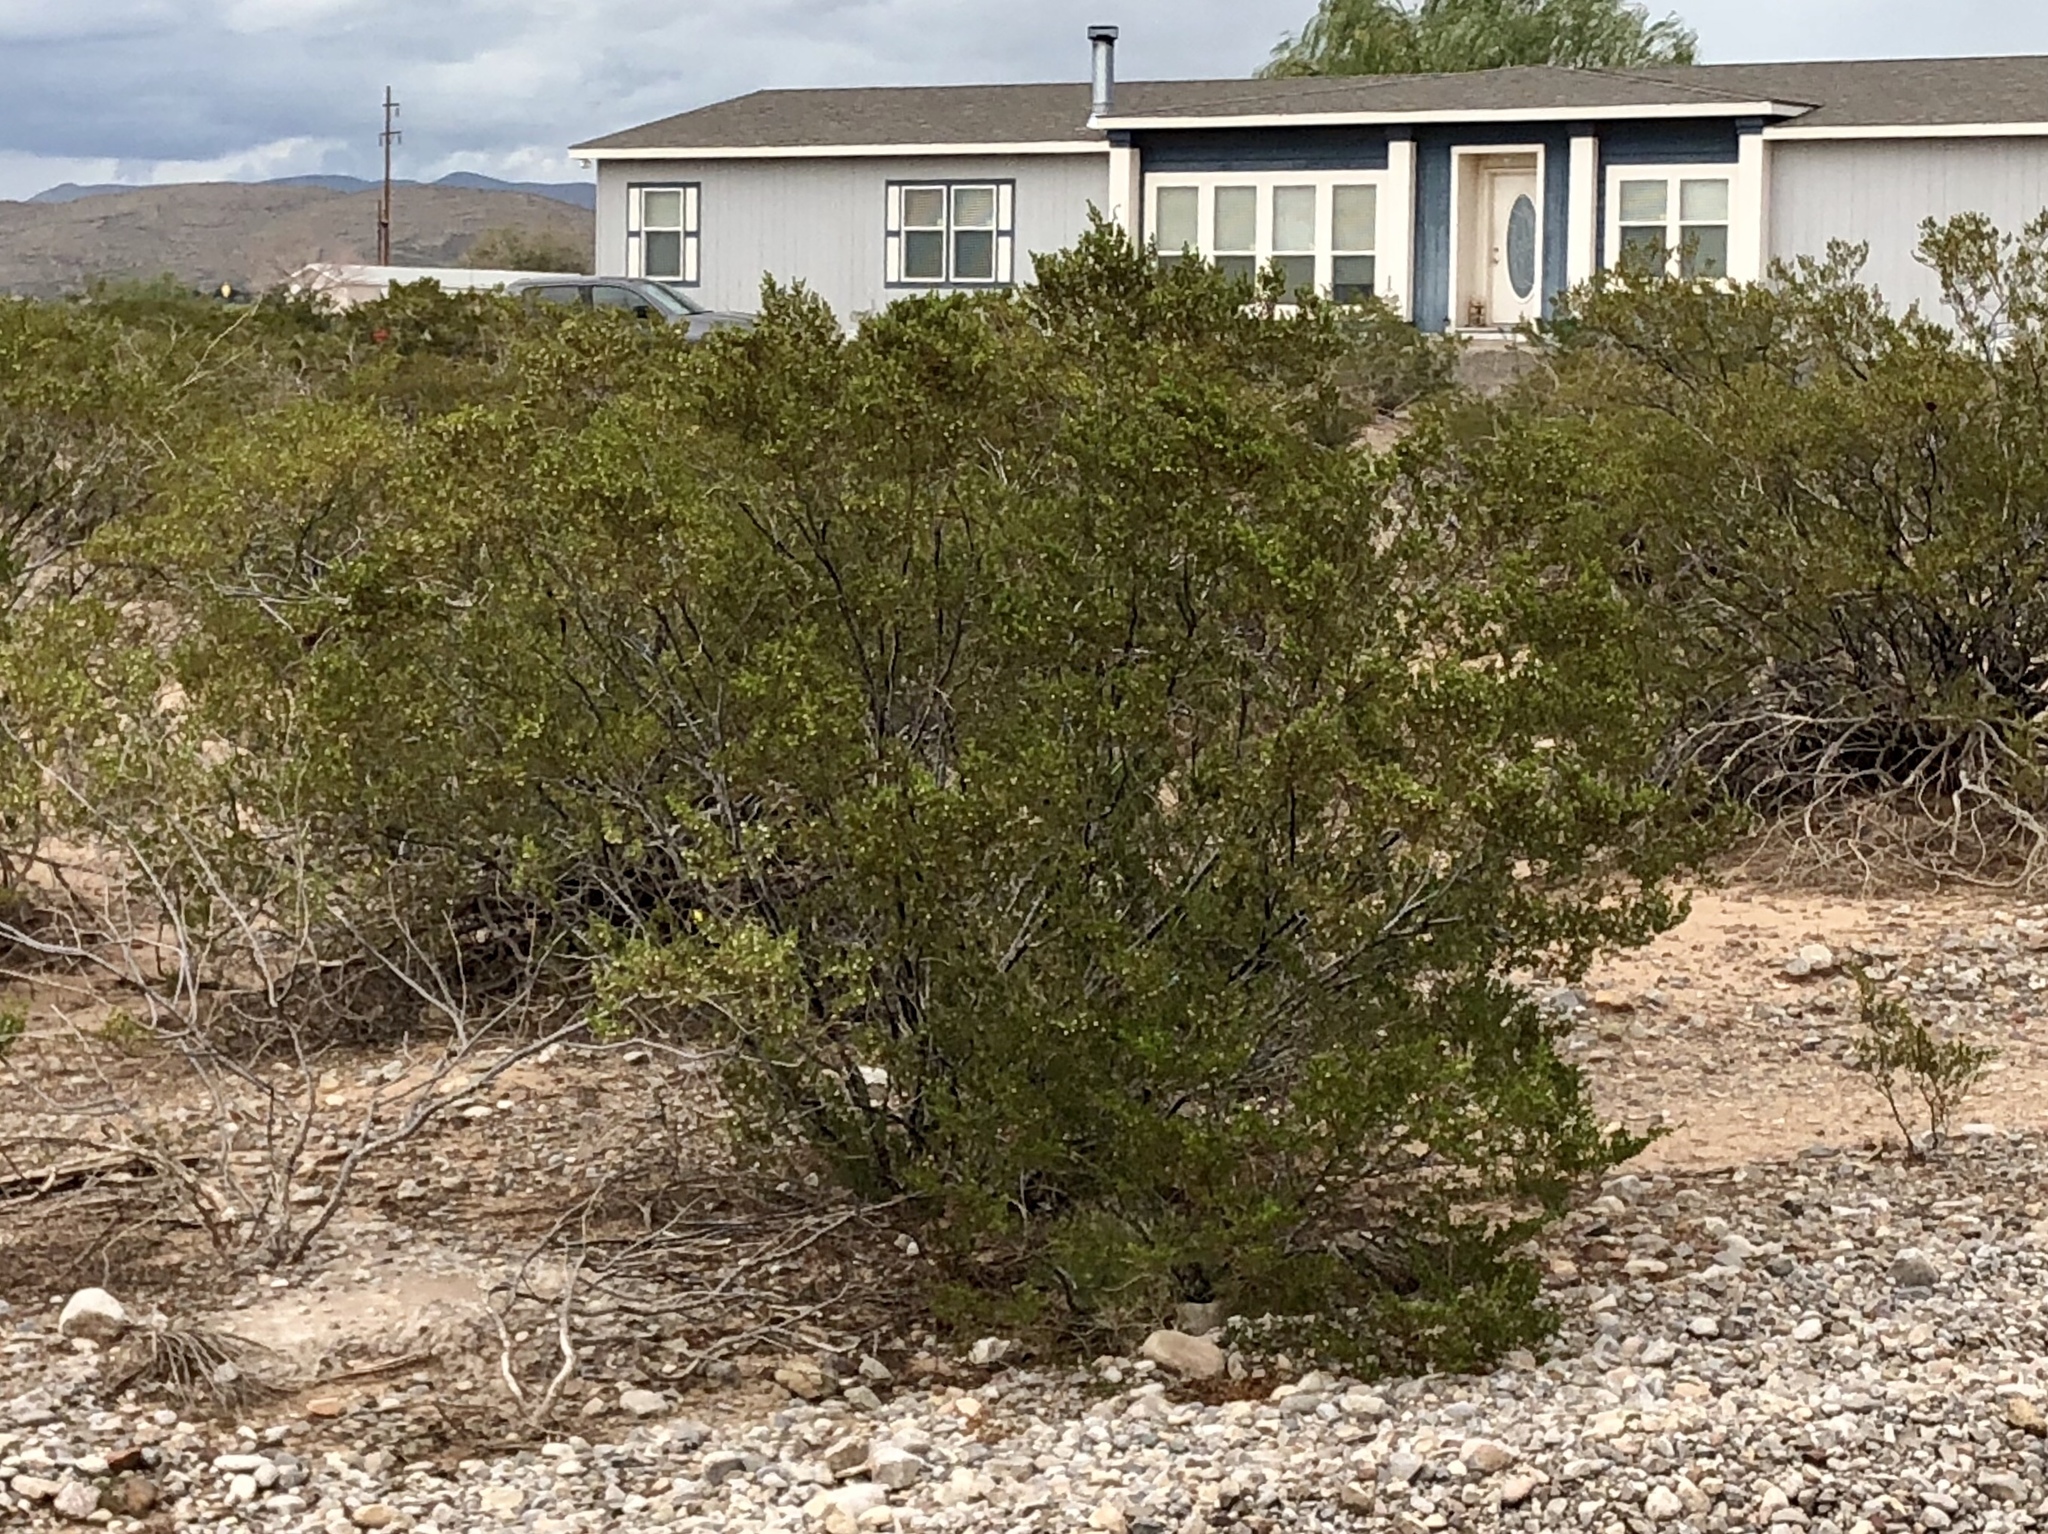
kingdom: Plantae
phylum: Tracheophyta
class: Magnoliopsida
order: Zygophyllales
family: Zygophyllaceae
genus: Larrea
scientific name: Larrea tridentata
